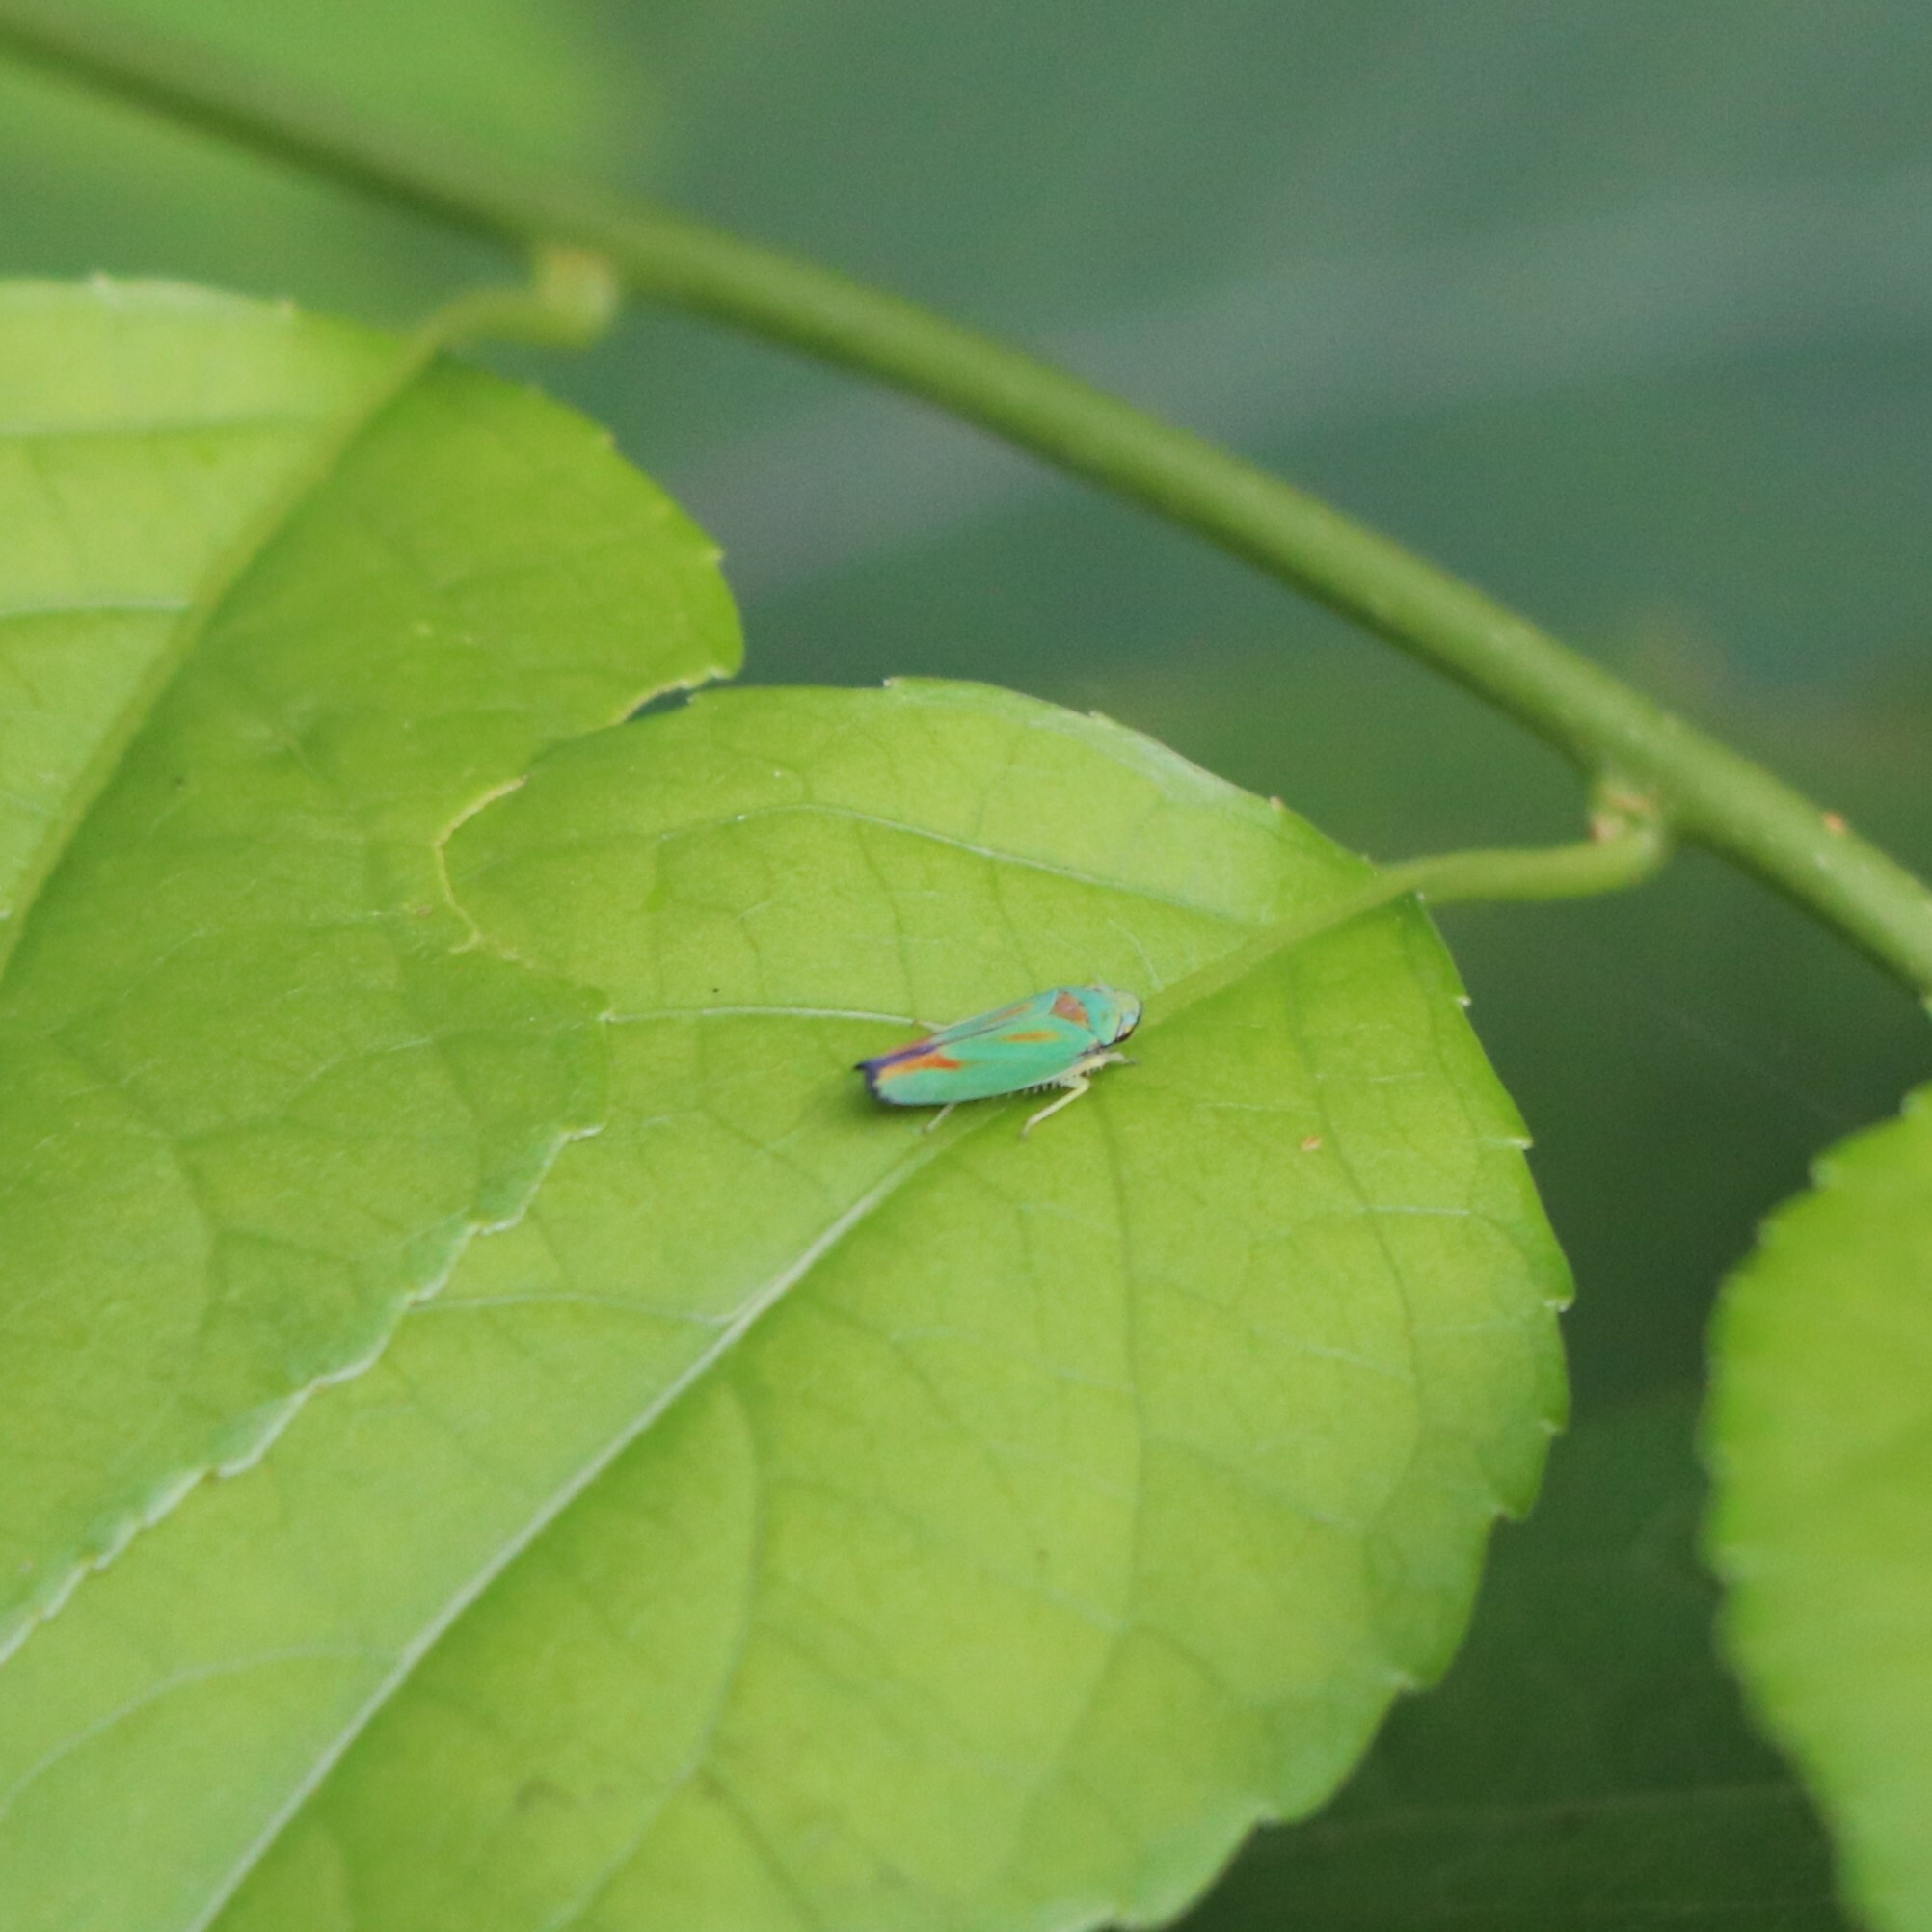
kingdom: Animalia
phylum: Arthropoda
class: Insecta
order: Hemiptera
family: Cicadellidae
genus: Graphocephala
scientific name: Graphocephala fennahi
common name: Rhododendron leafhopper
